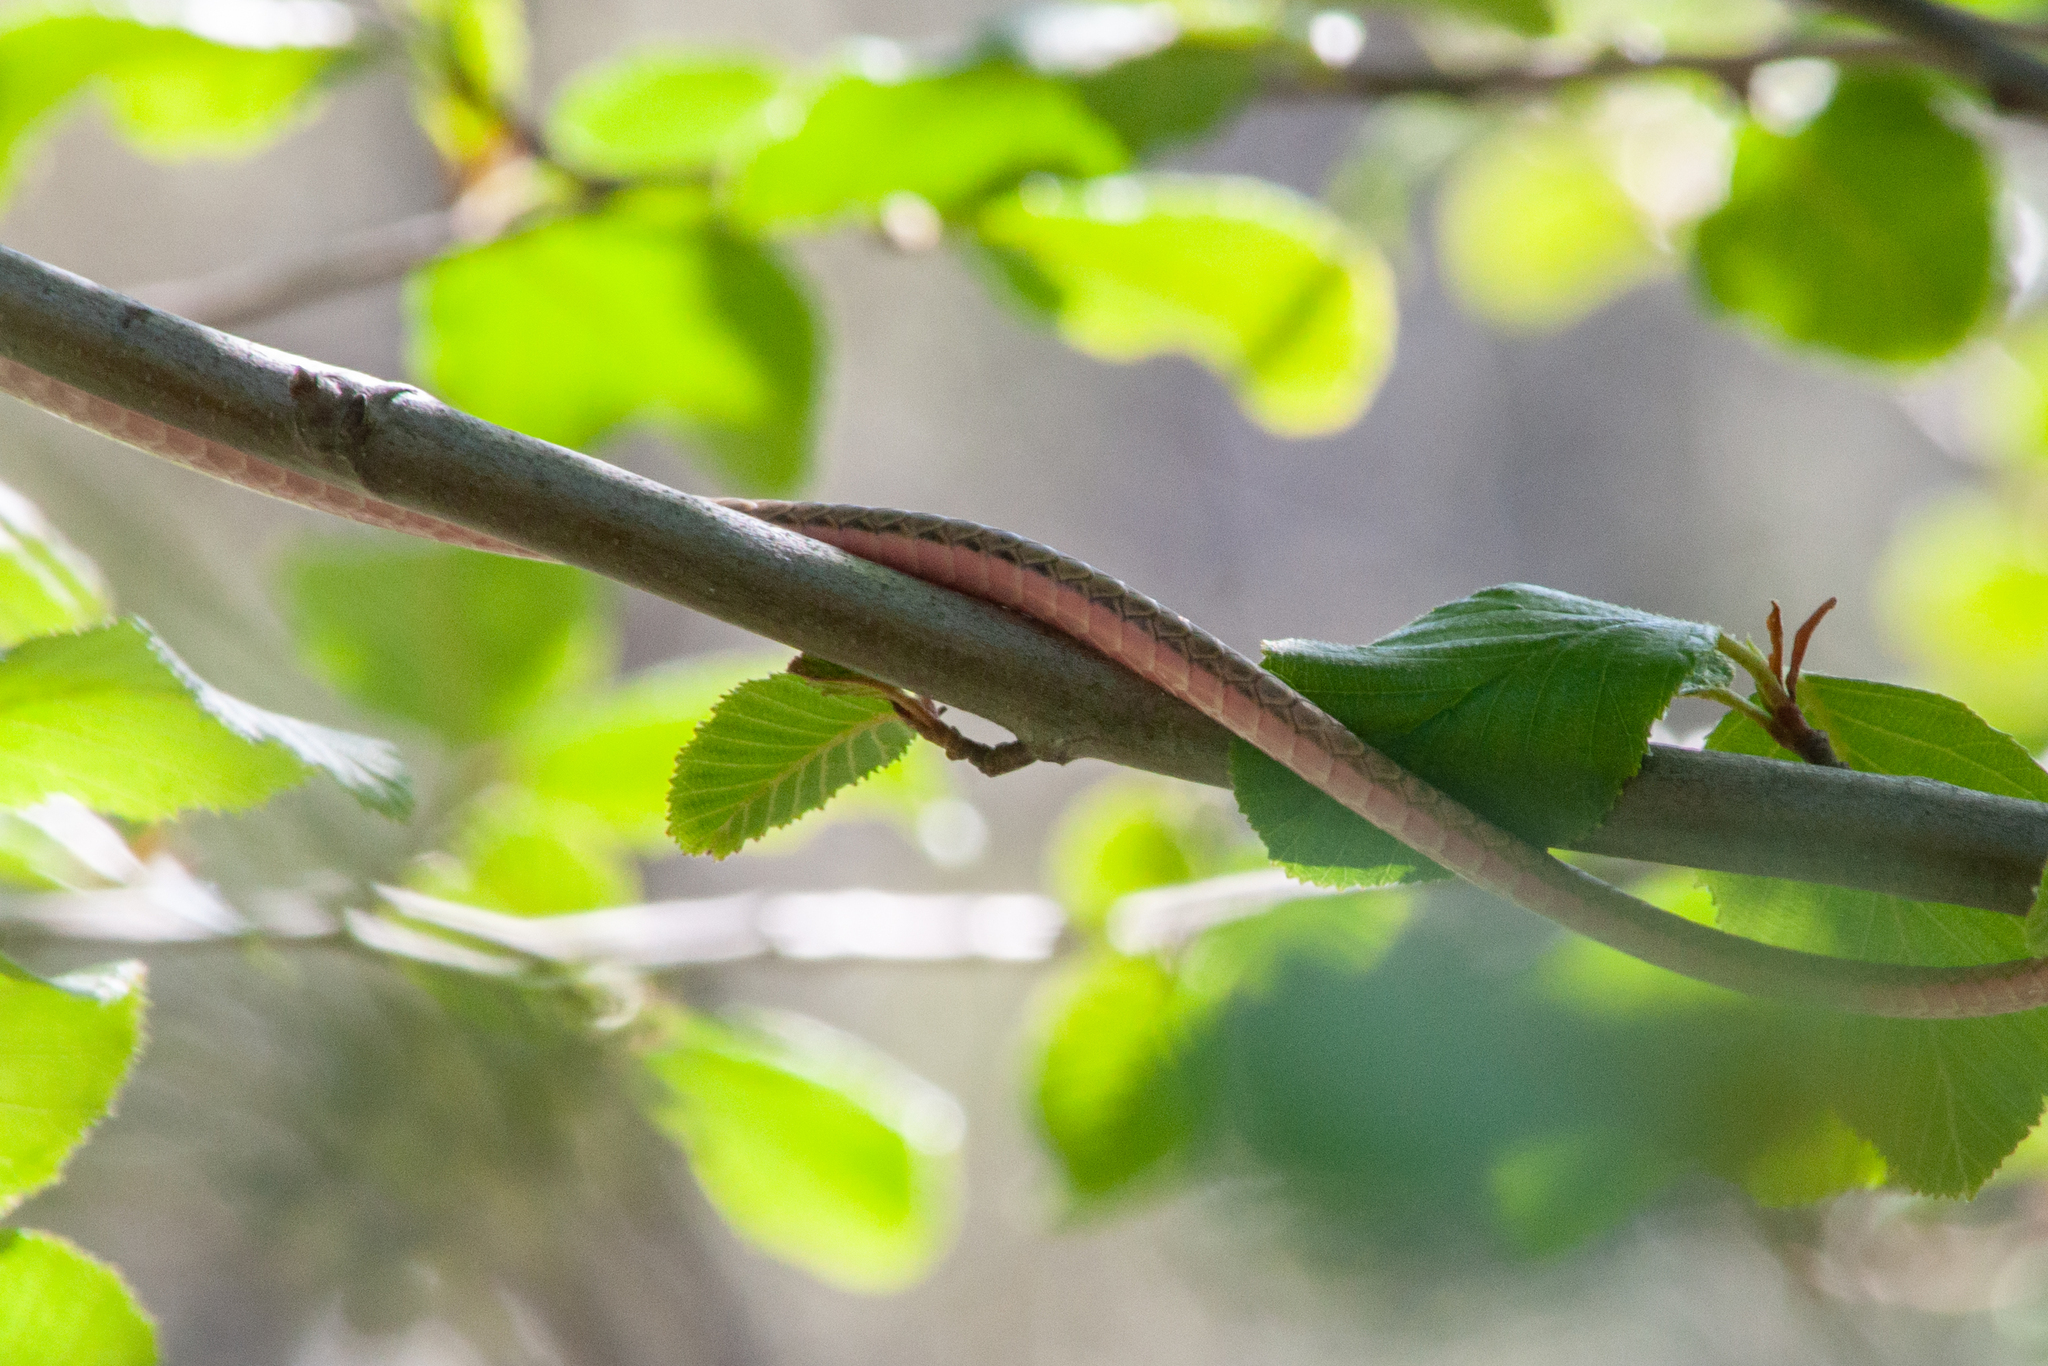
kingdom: Animalia
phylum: Chordata
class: Squamata
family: Colubridae
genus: Masticophis
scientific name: Masticophis lateralis
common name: Striped racer
